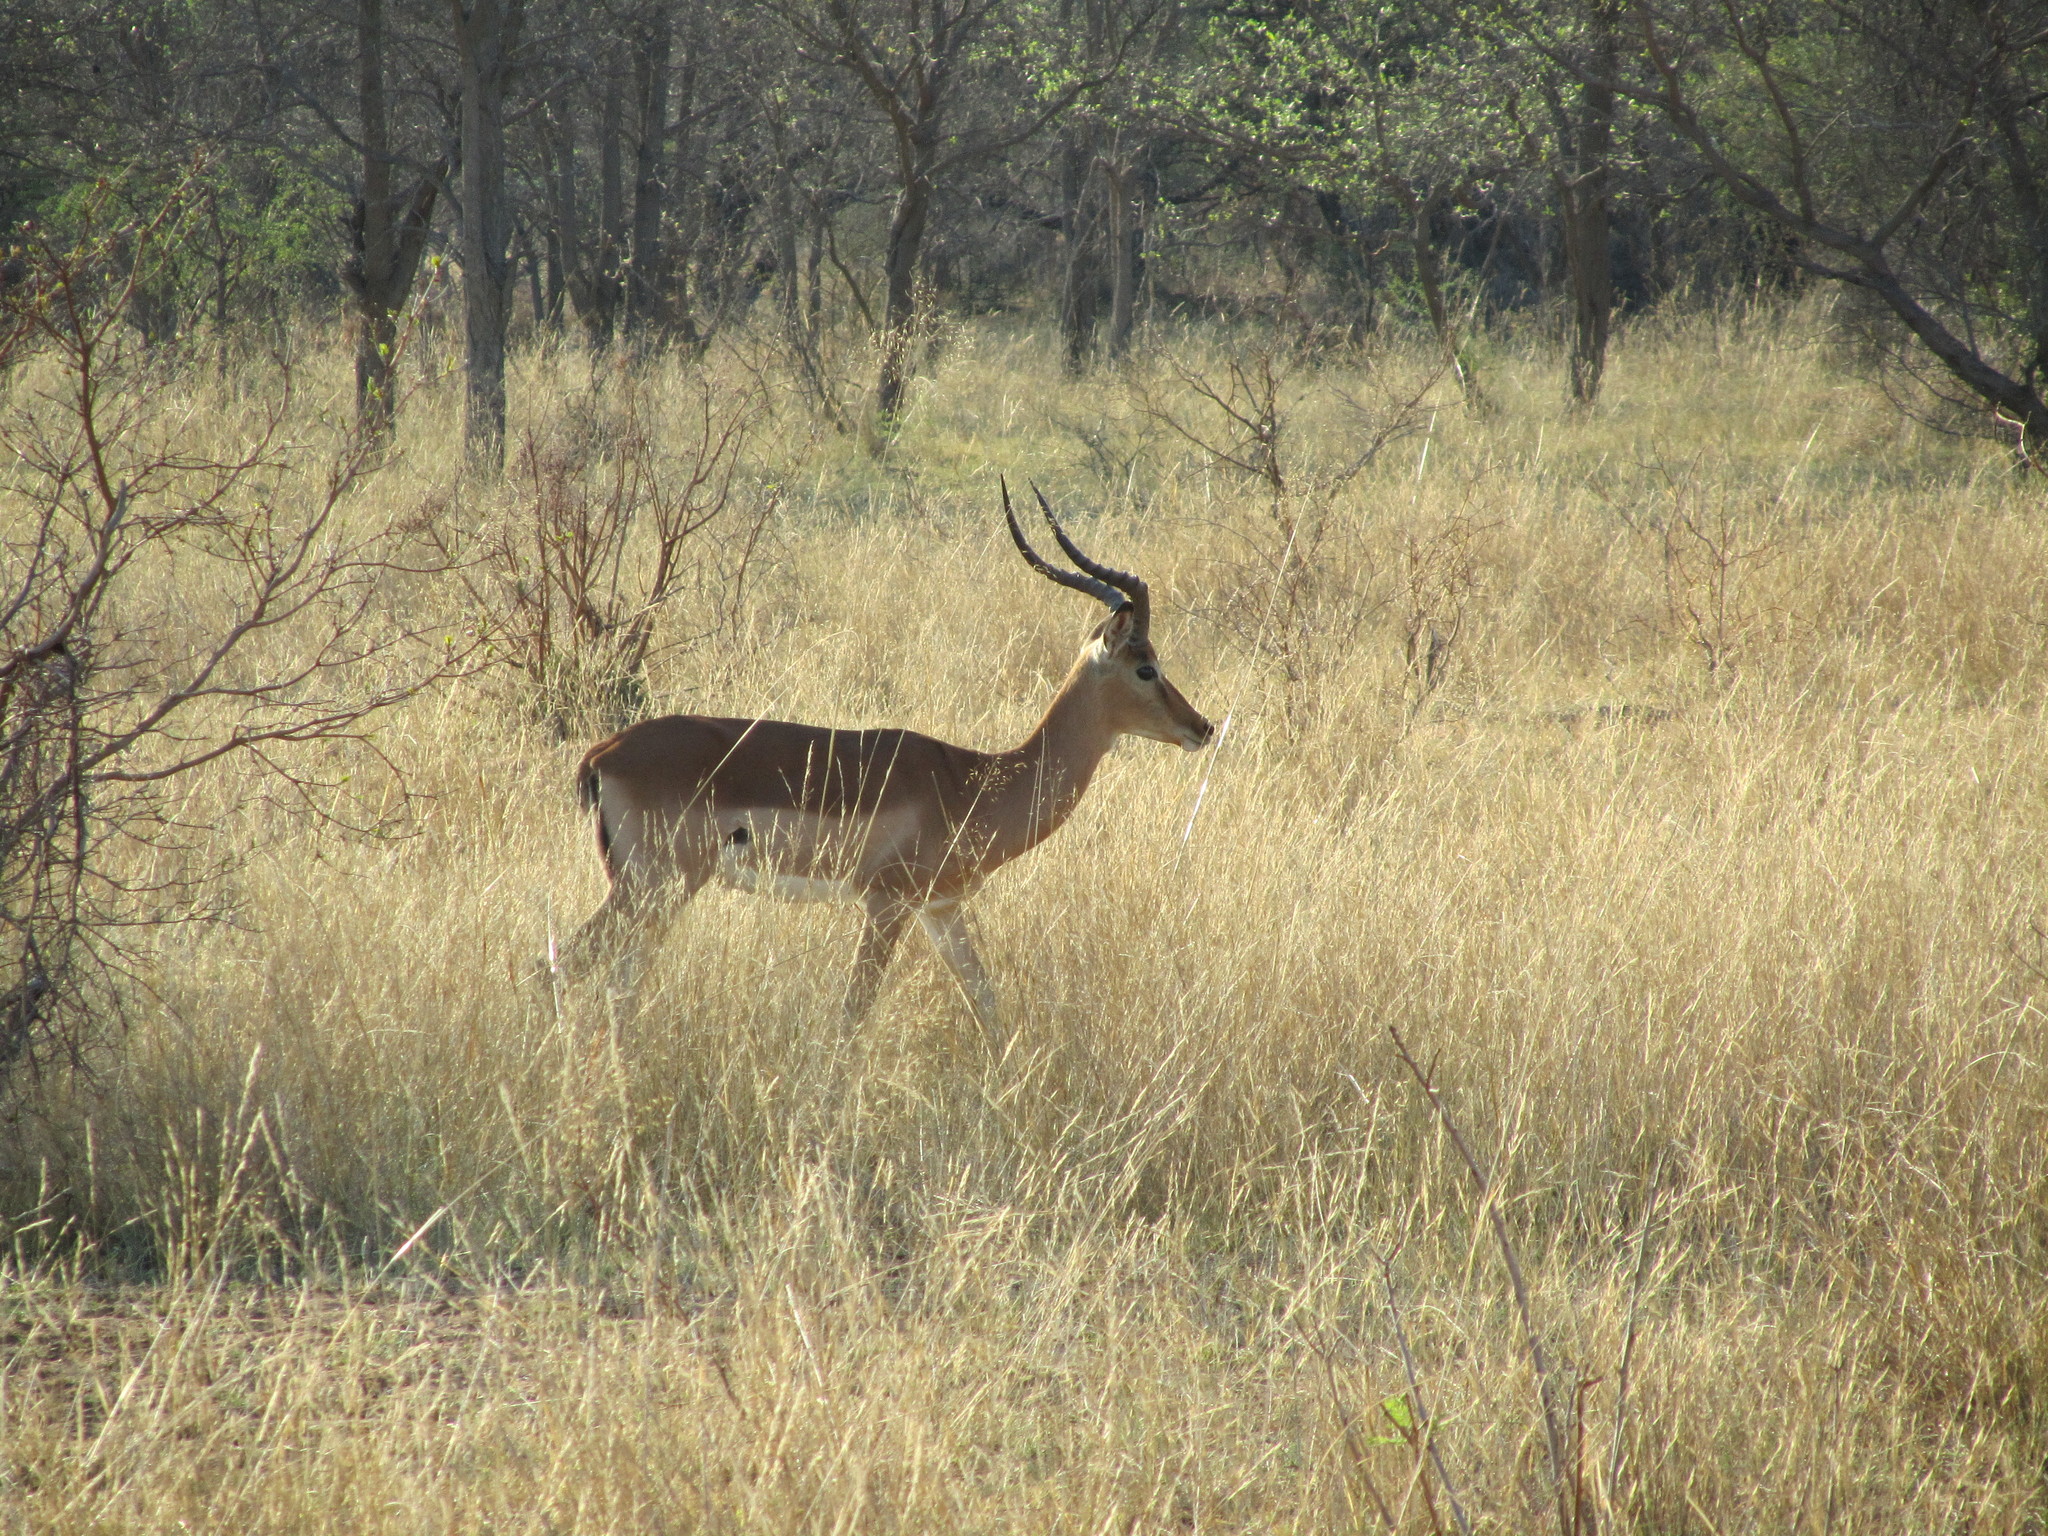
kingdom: Animalia
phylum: Chordata
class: Mammalia
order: Artiodactyla
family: Bovidae
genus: Aepyceros
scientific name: Aepyceros melampus
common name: Impala
